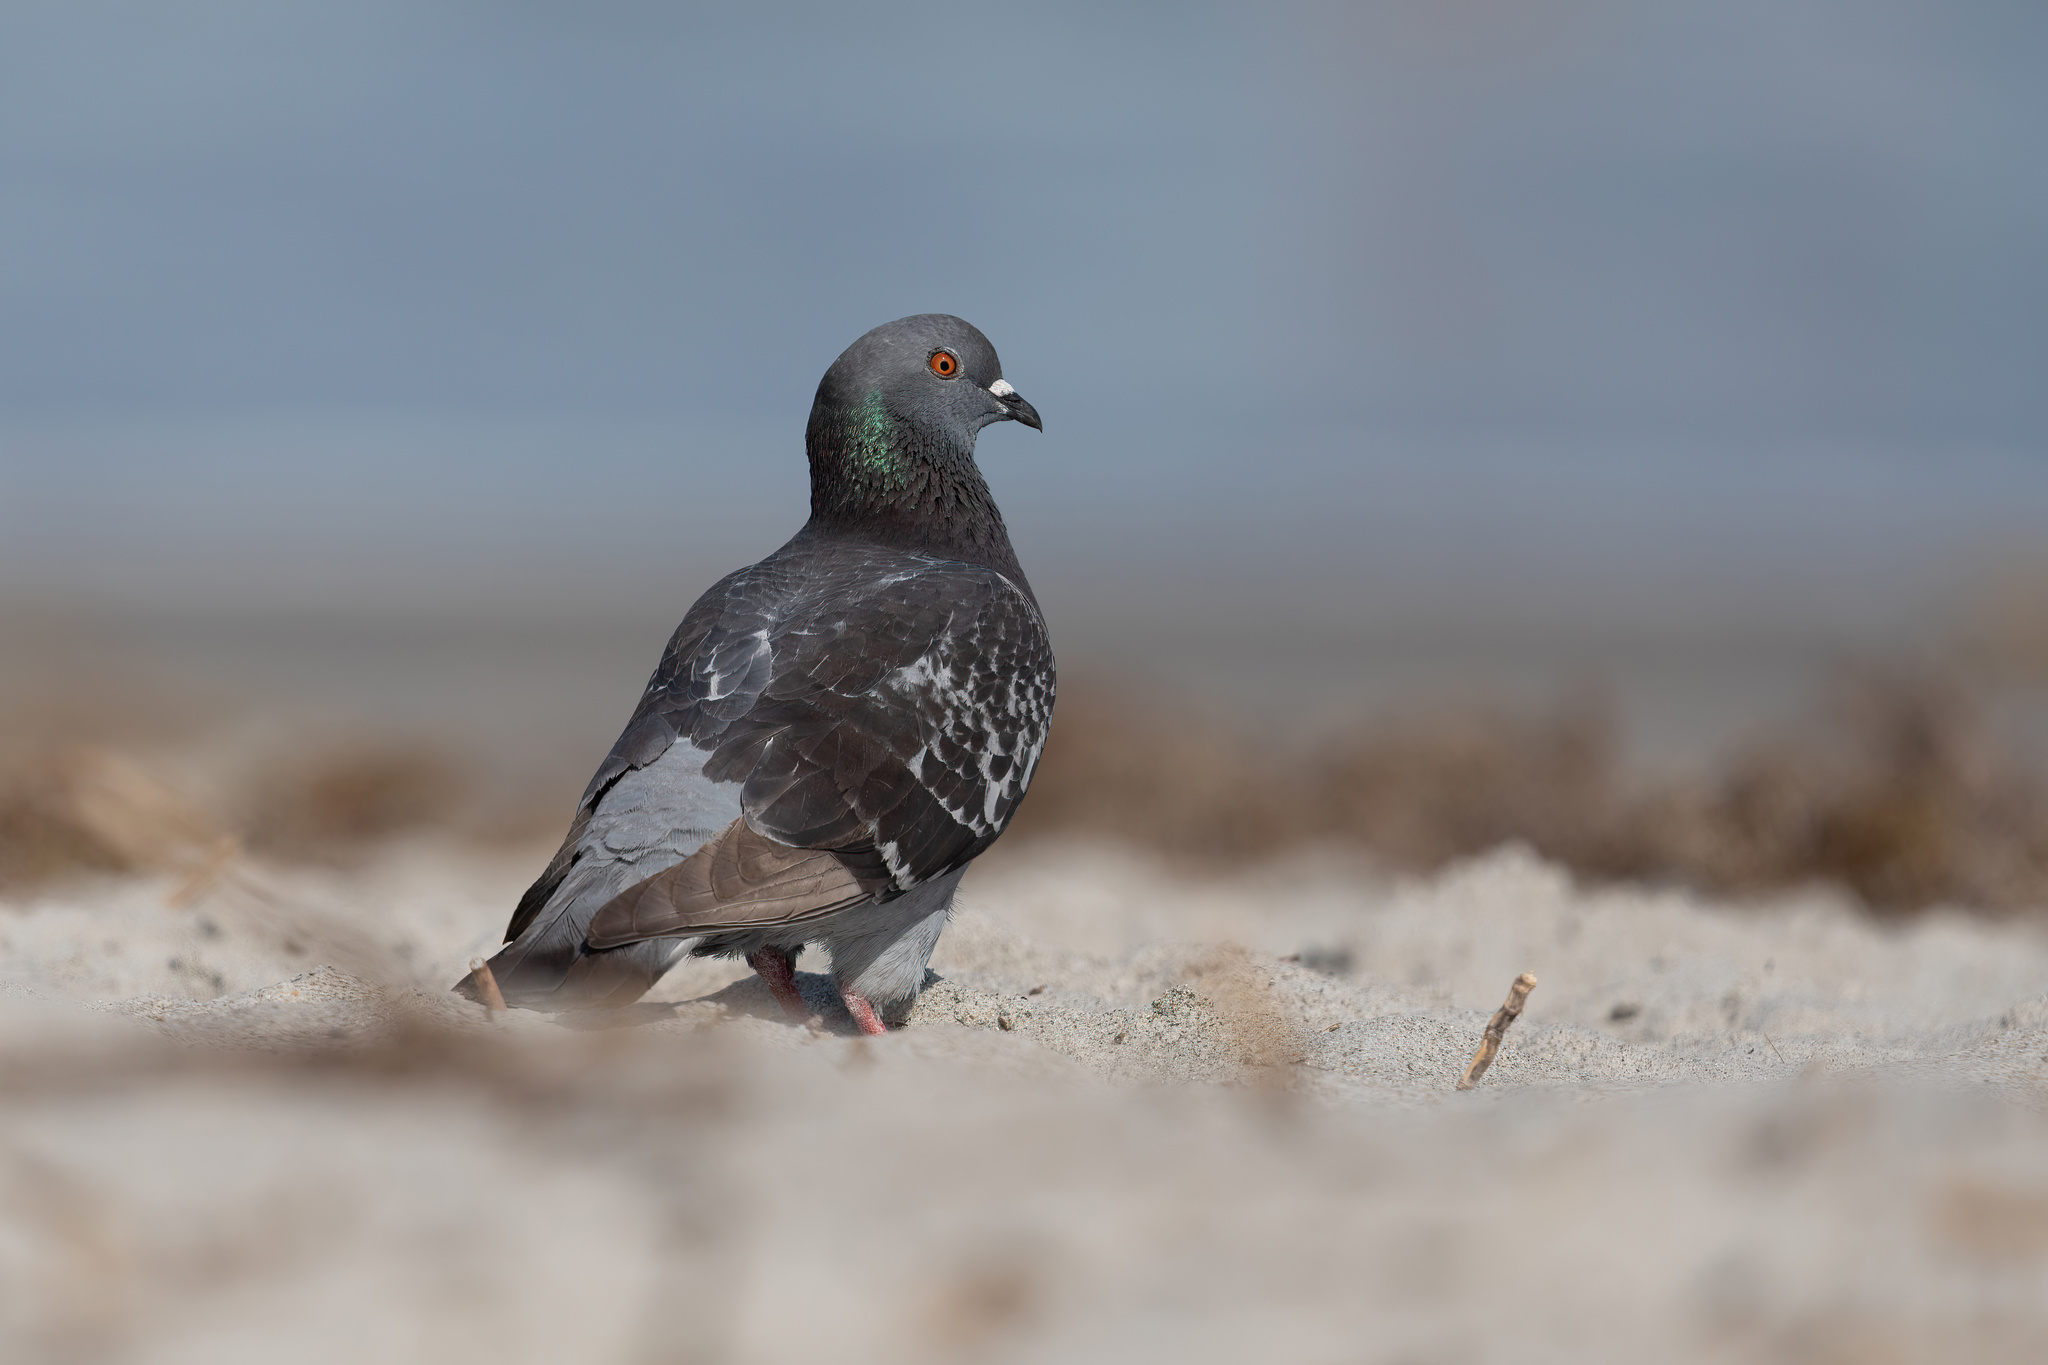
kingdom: Animalia
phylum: Chordata
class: Aves
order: Columbiformes
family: Columbidae
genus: Columba
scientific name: Columba livia
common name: Rock pigeon
